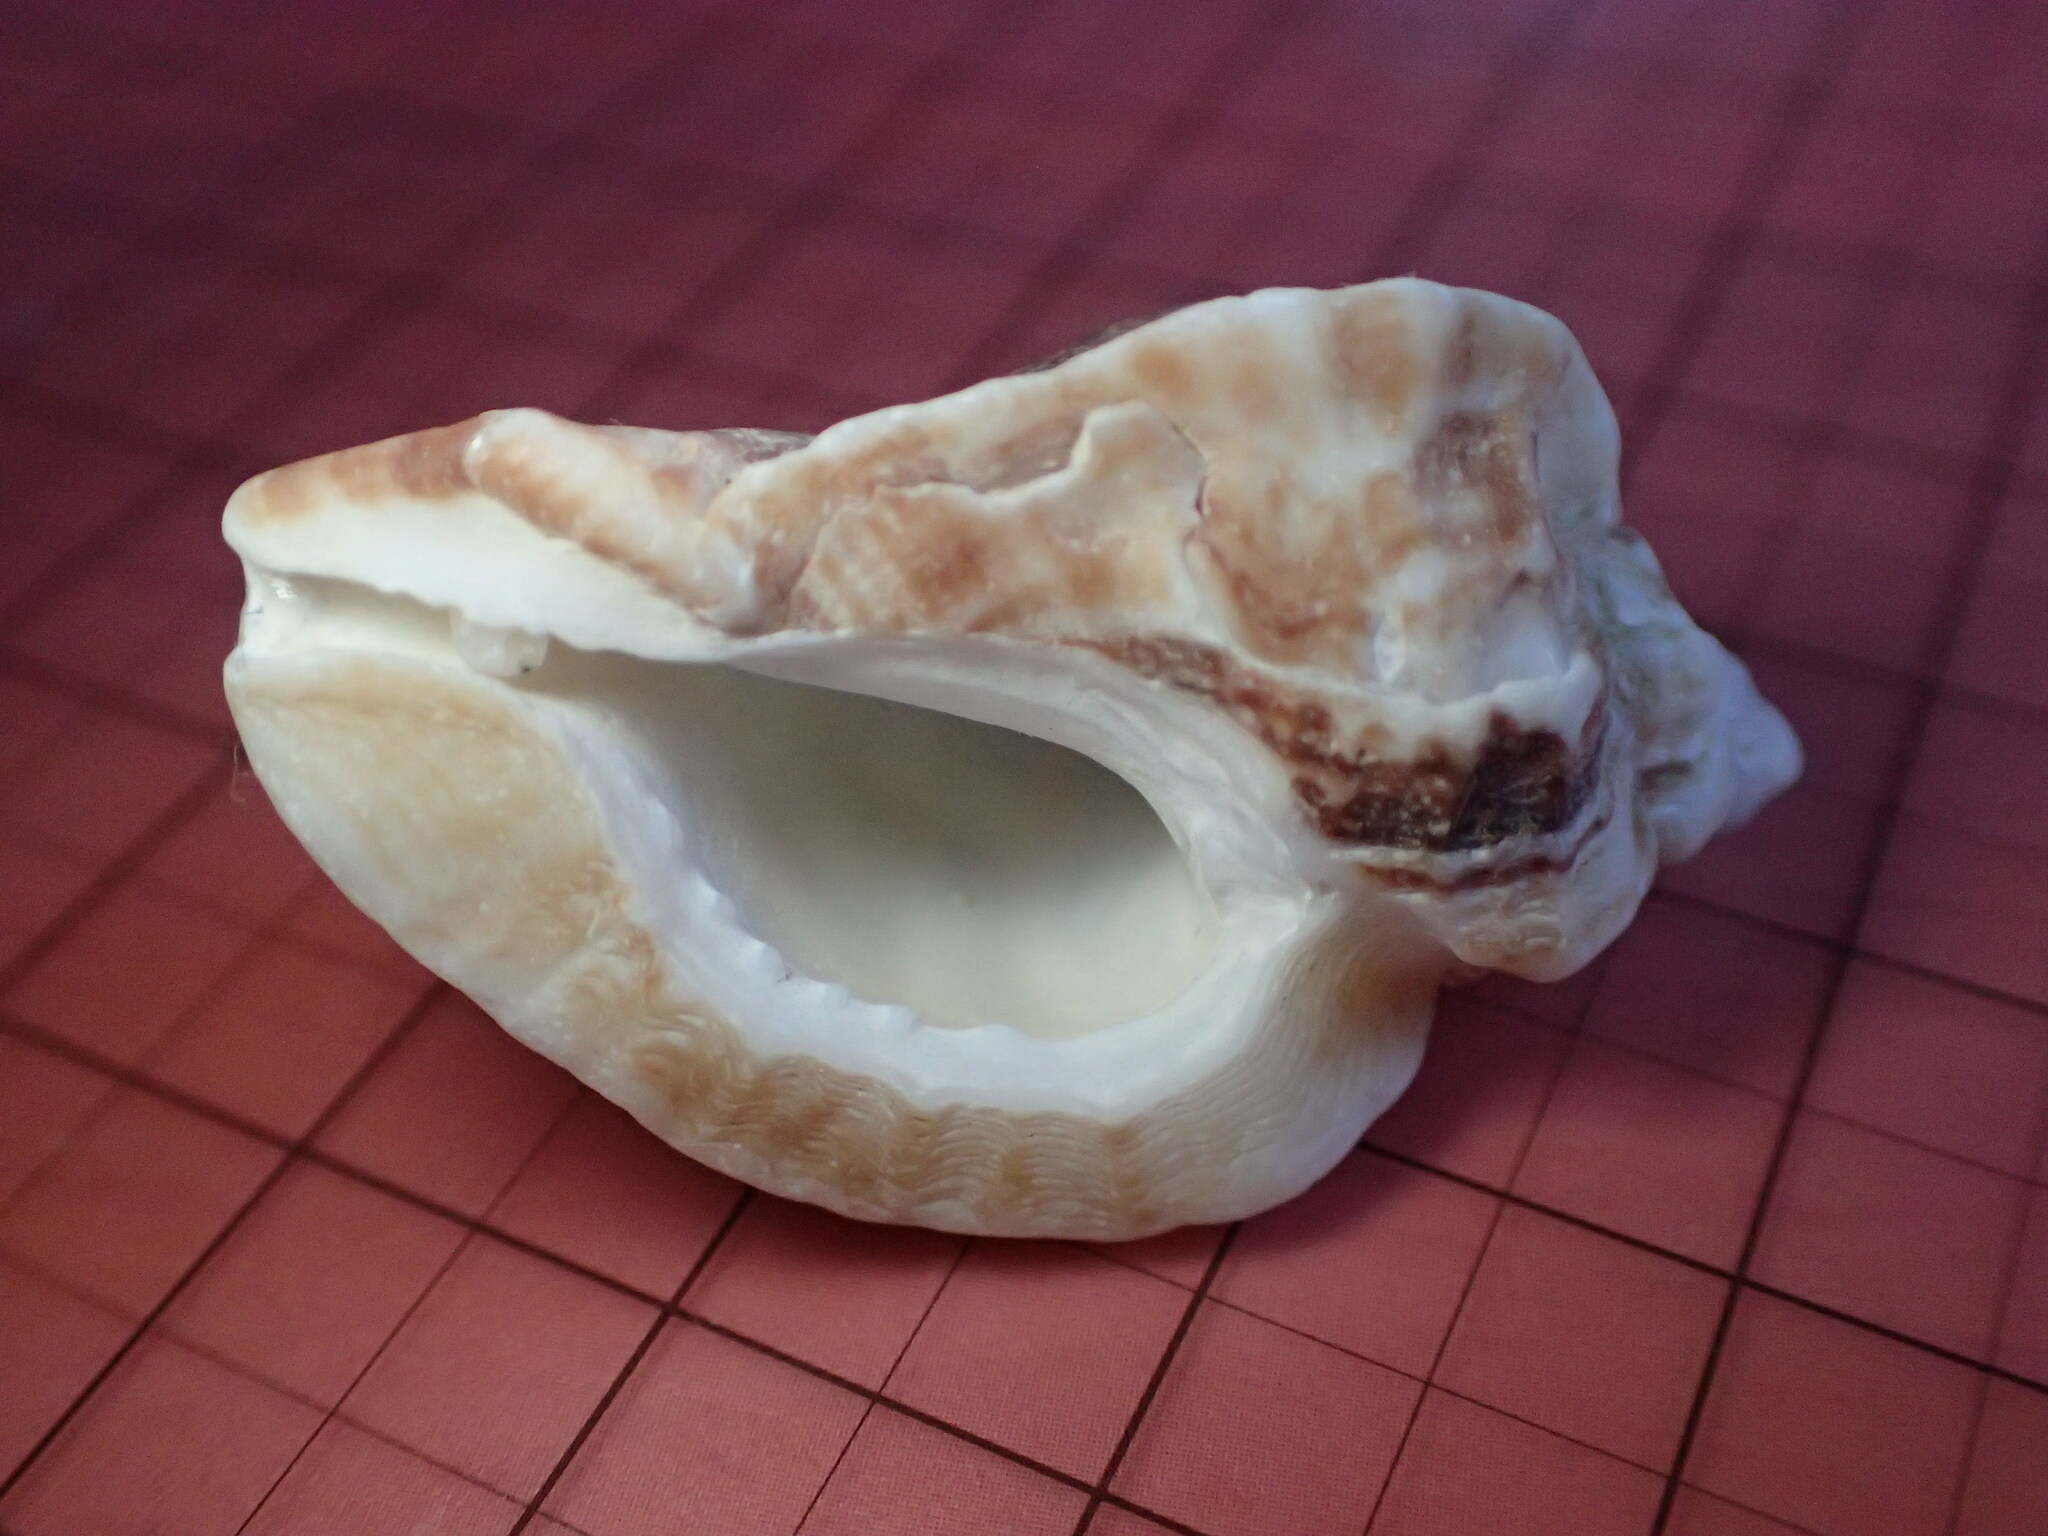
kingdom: Animalia
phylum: Mollusca
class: Gastropoda
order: Neogastropoda
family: Muricidae
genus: Ceratostoma
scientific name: Ceratostoma foliatum
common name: Foliate thorn purpura
